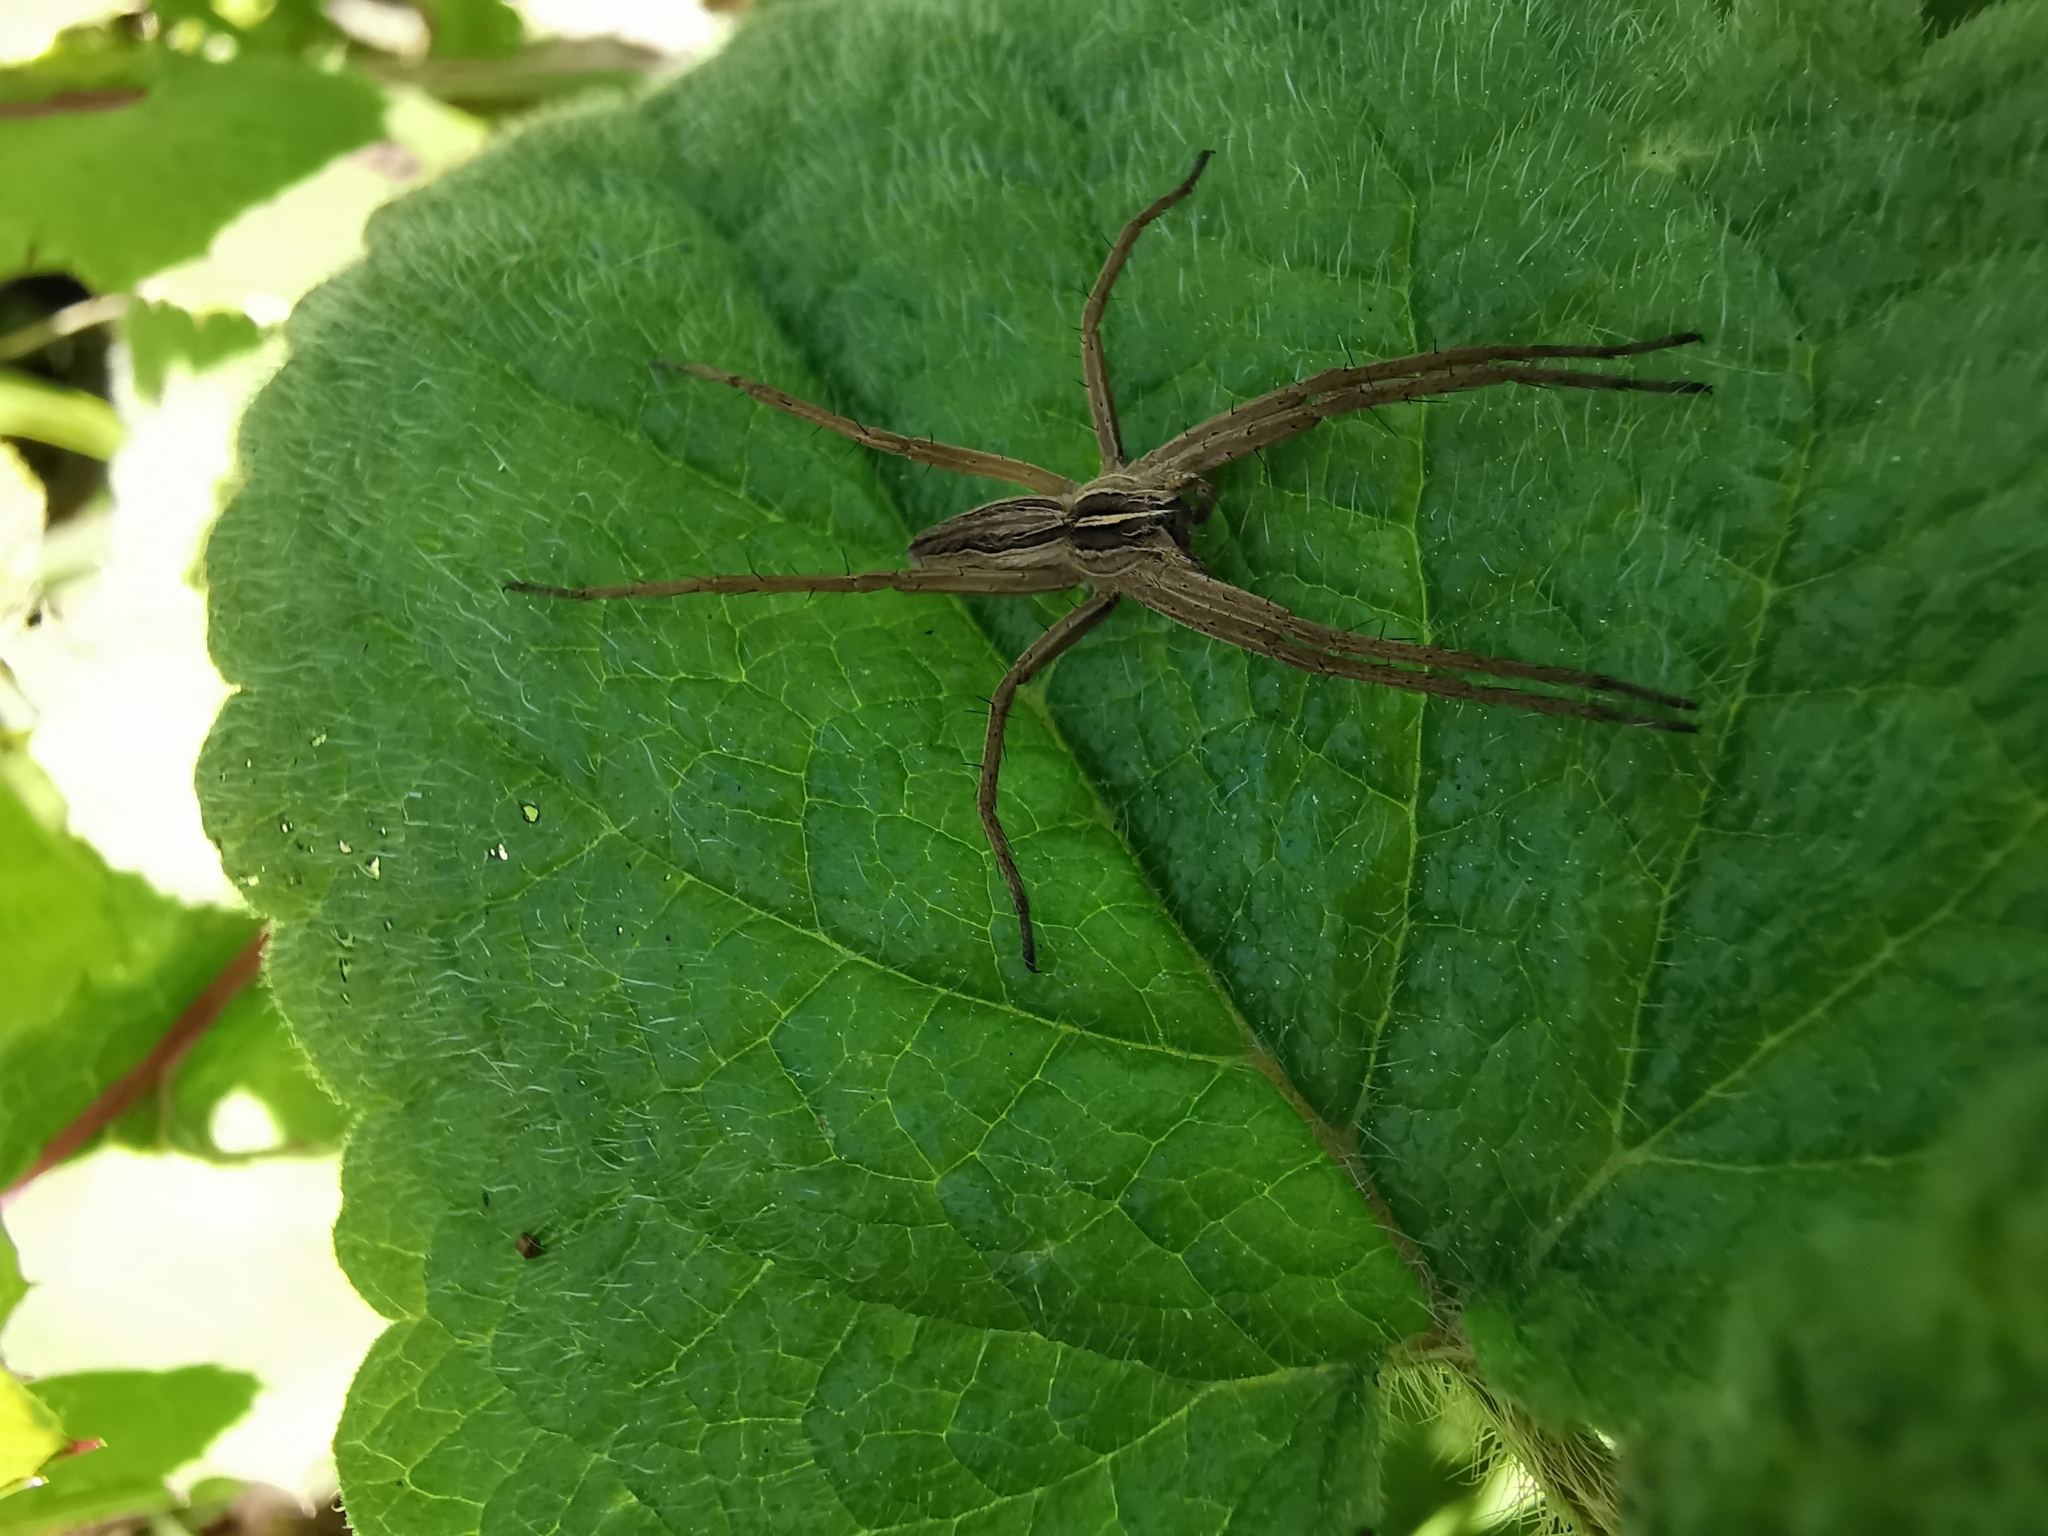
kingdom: Animalia
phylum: Arthropoda
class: Arachnida
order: Araneae
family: Pisauridae
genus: Pisaura
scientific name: Pisaura mirabilis
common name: Tent spider
